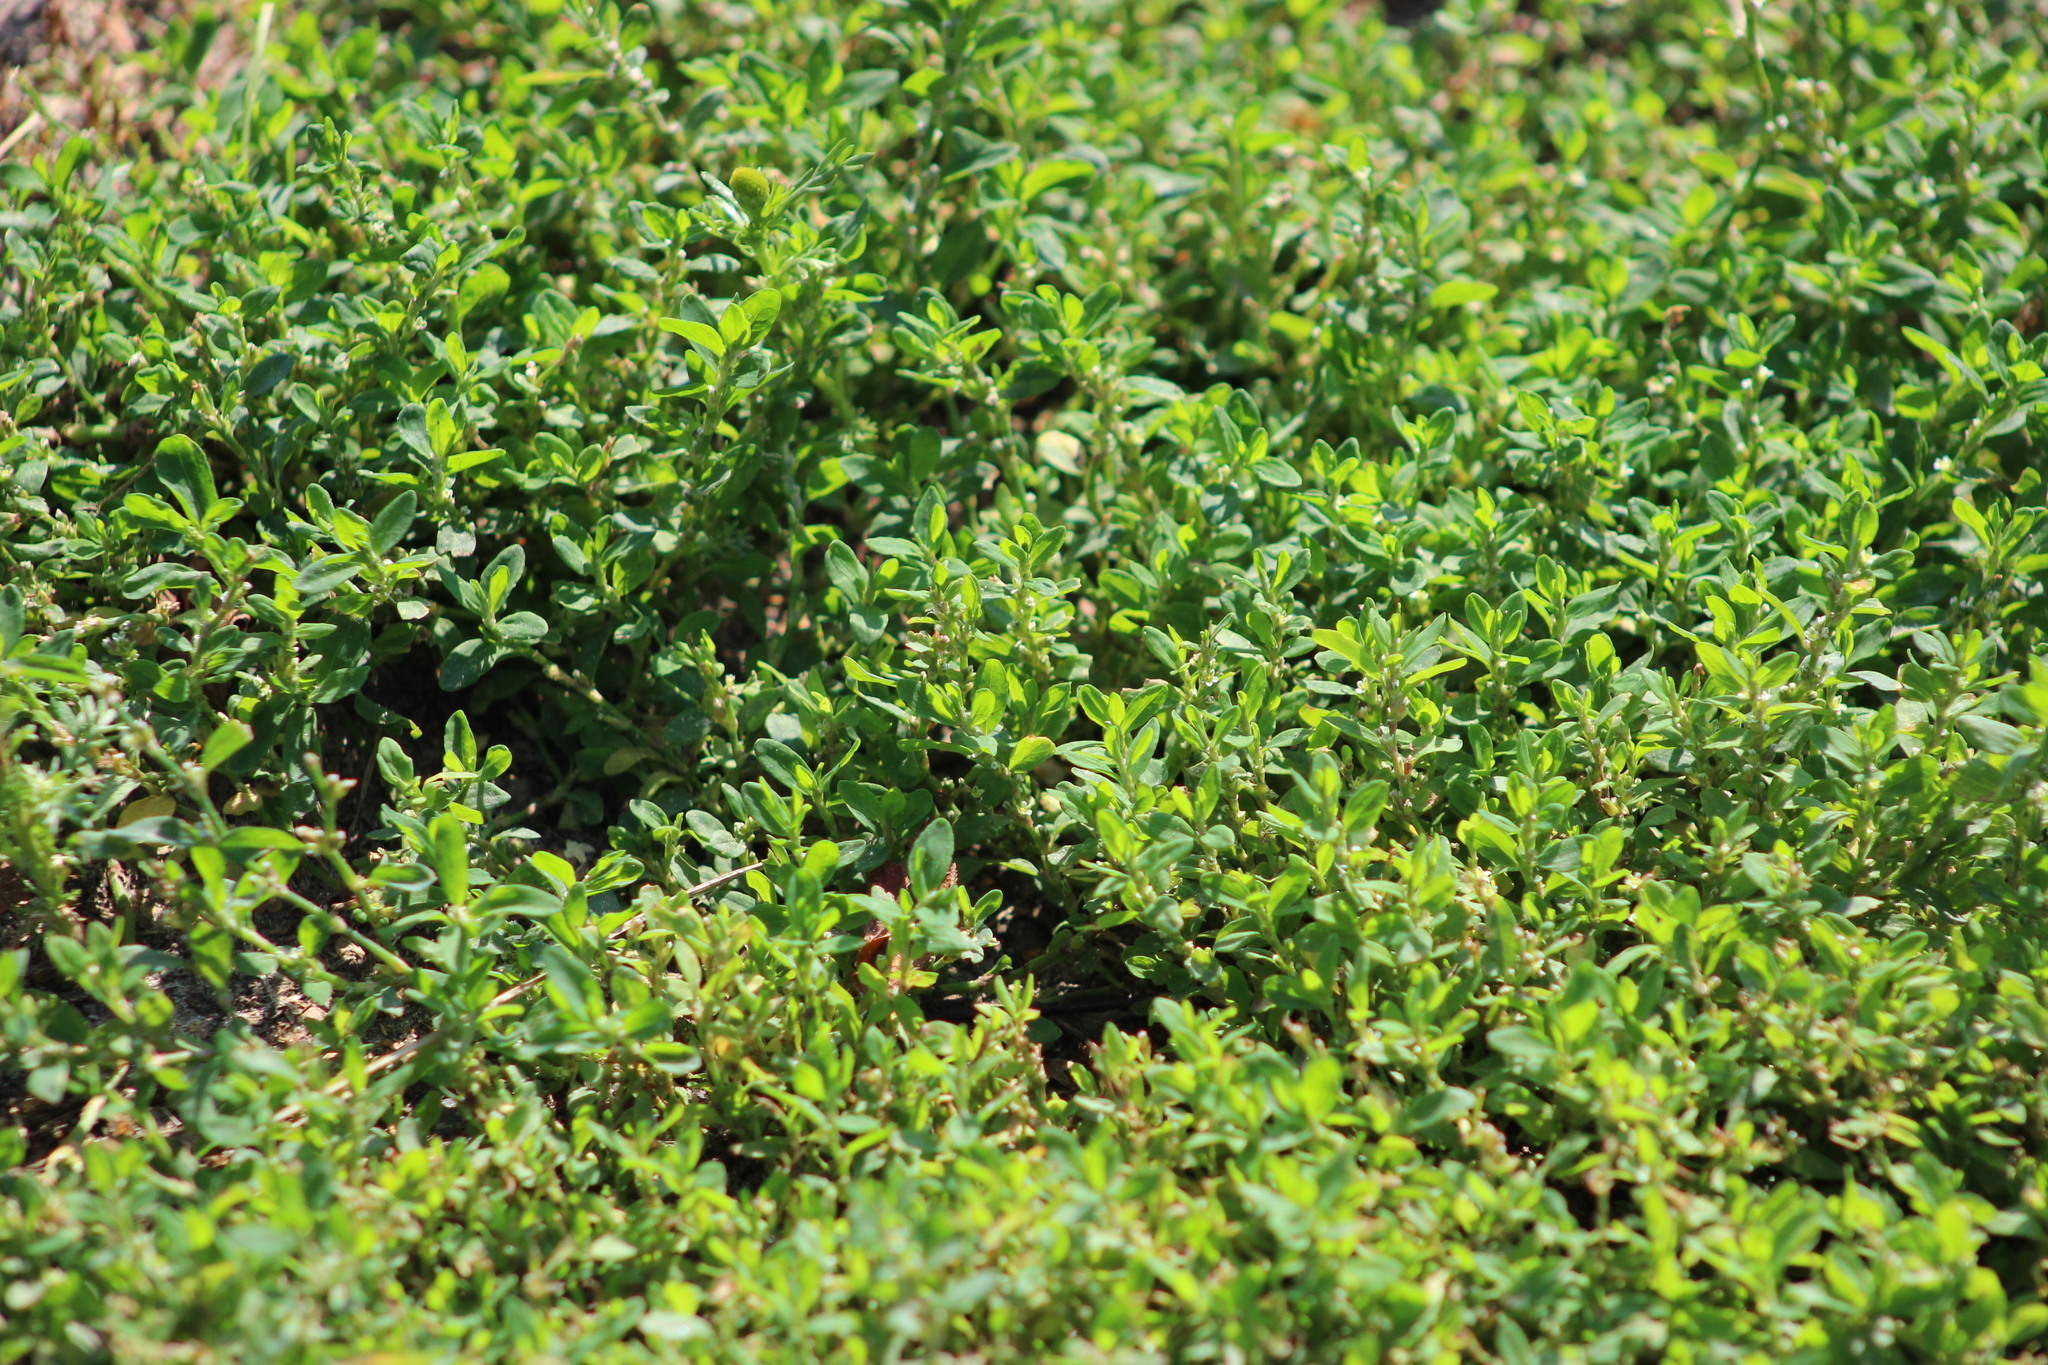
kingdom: Plantae
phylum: Tracheophyta
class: Magnoliopsida
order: Caryophyllales
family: Polygonaceae
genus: Polygonum
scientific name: Polygonum aviculare
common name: Prostrate knotweed
